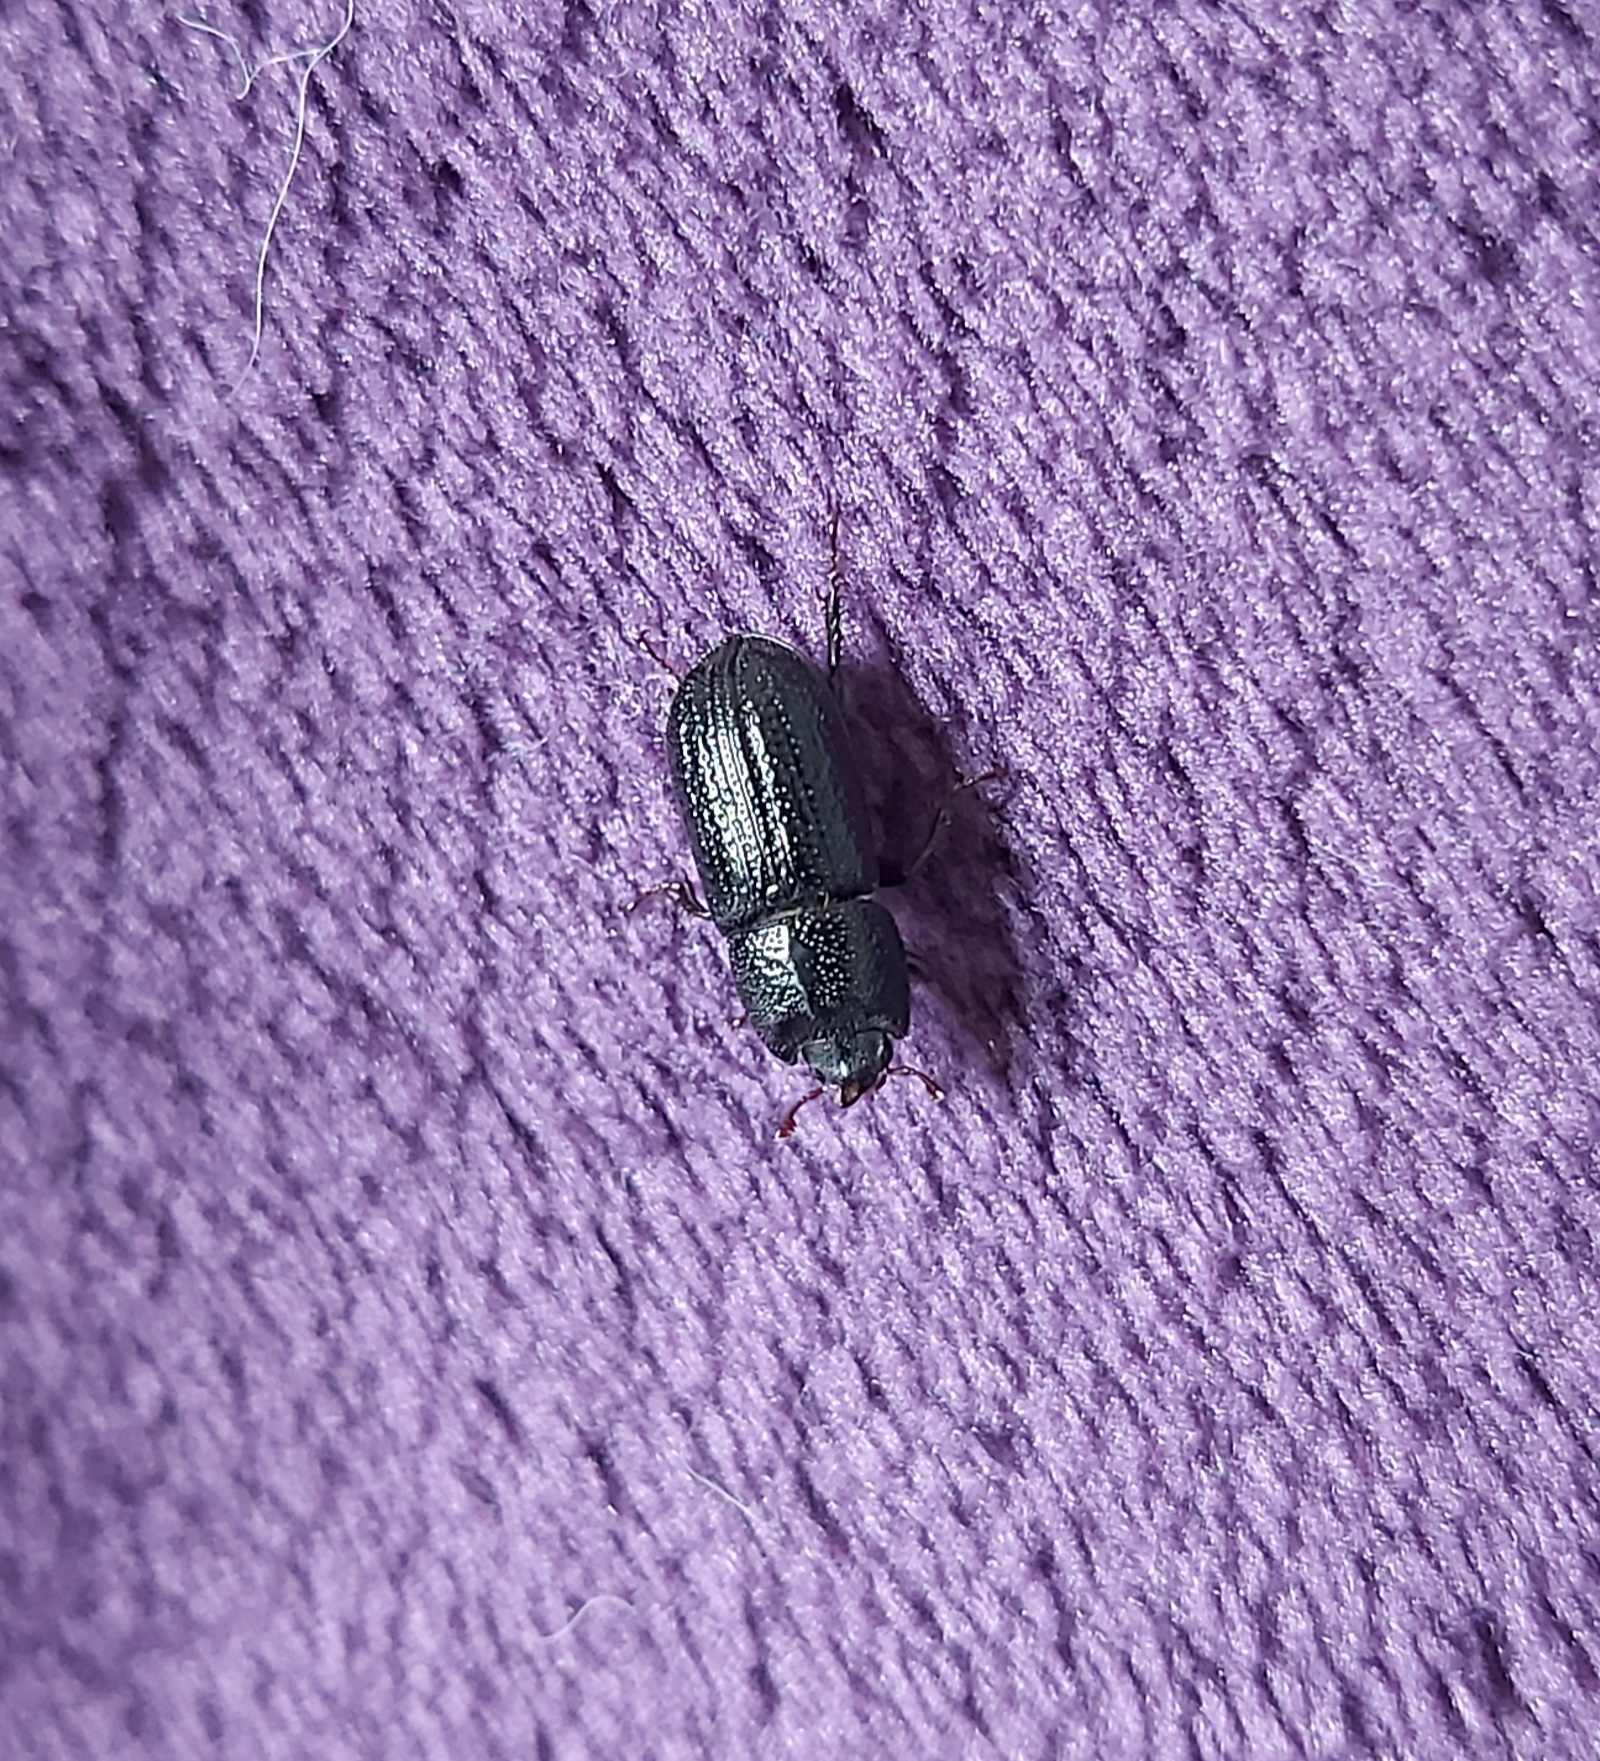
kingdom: Animalia
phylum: Arthropoda
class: Insecta
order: Coleoptera
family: Lucanidae
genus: Sinodendron
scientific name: Sinodendron cylindricum
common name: Rhinoceros beetle
